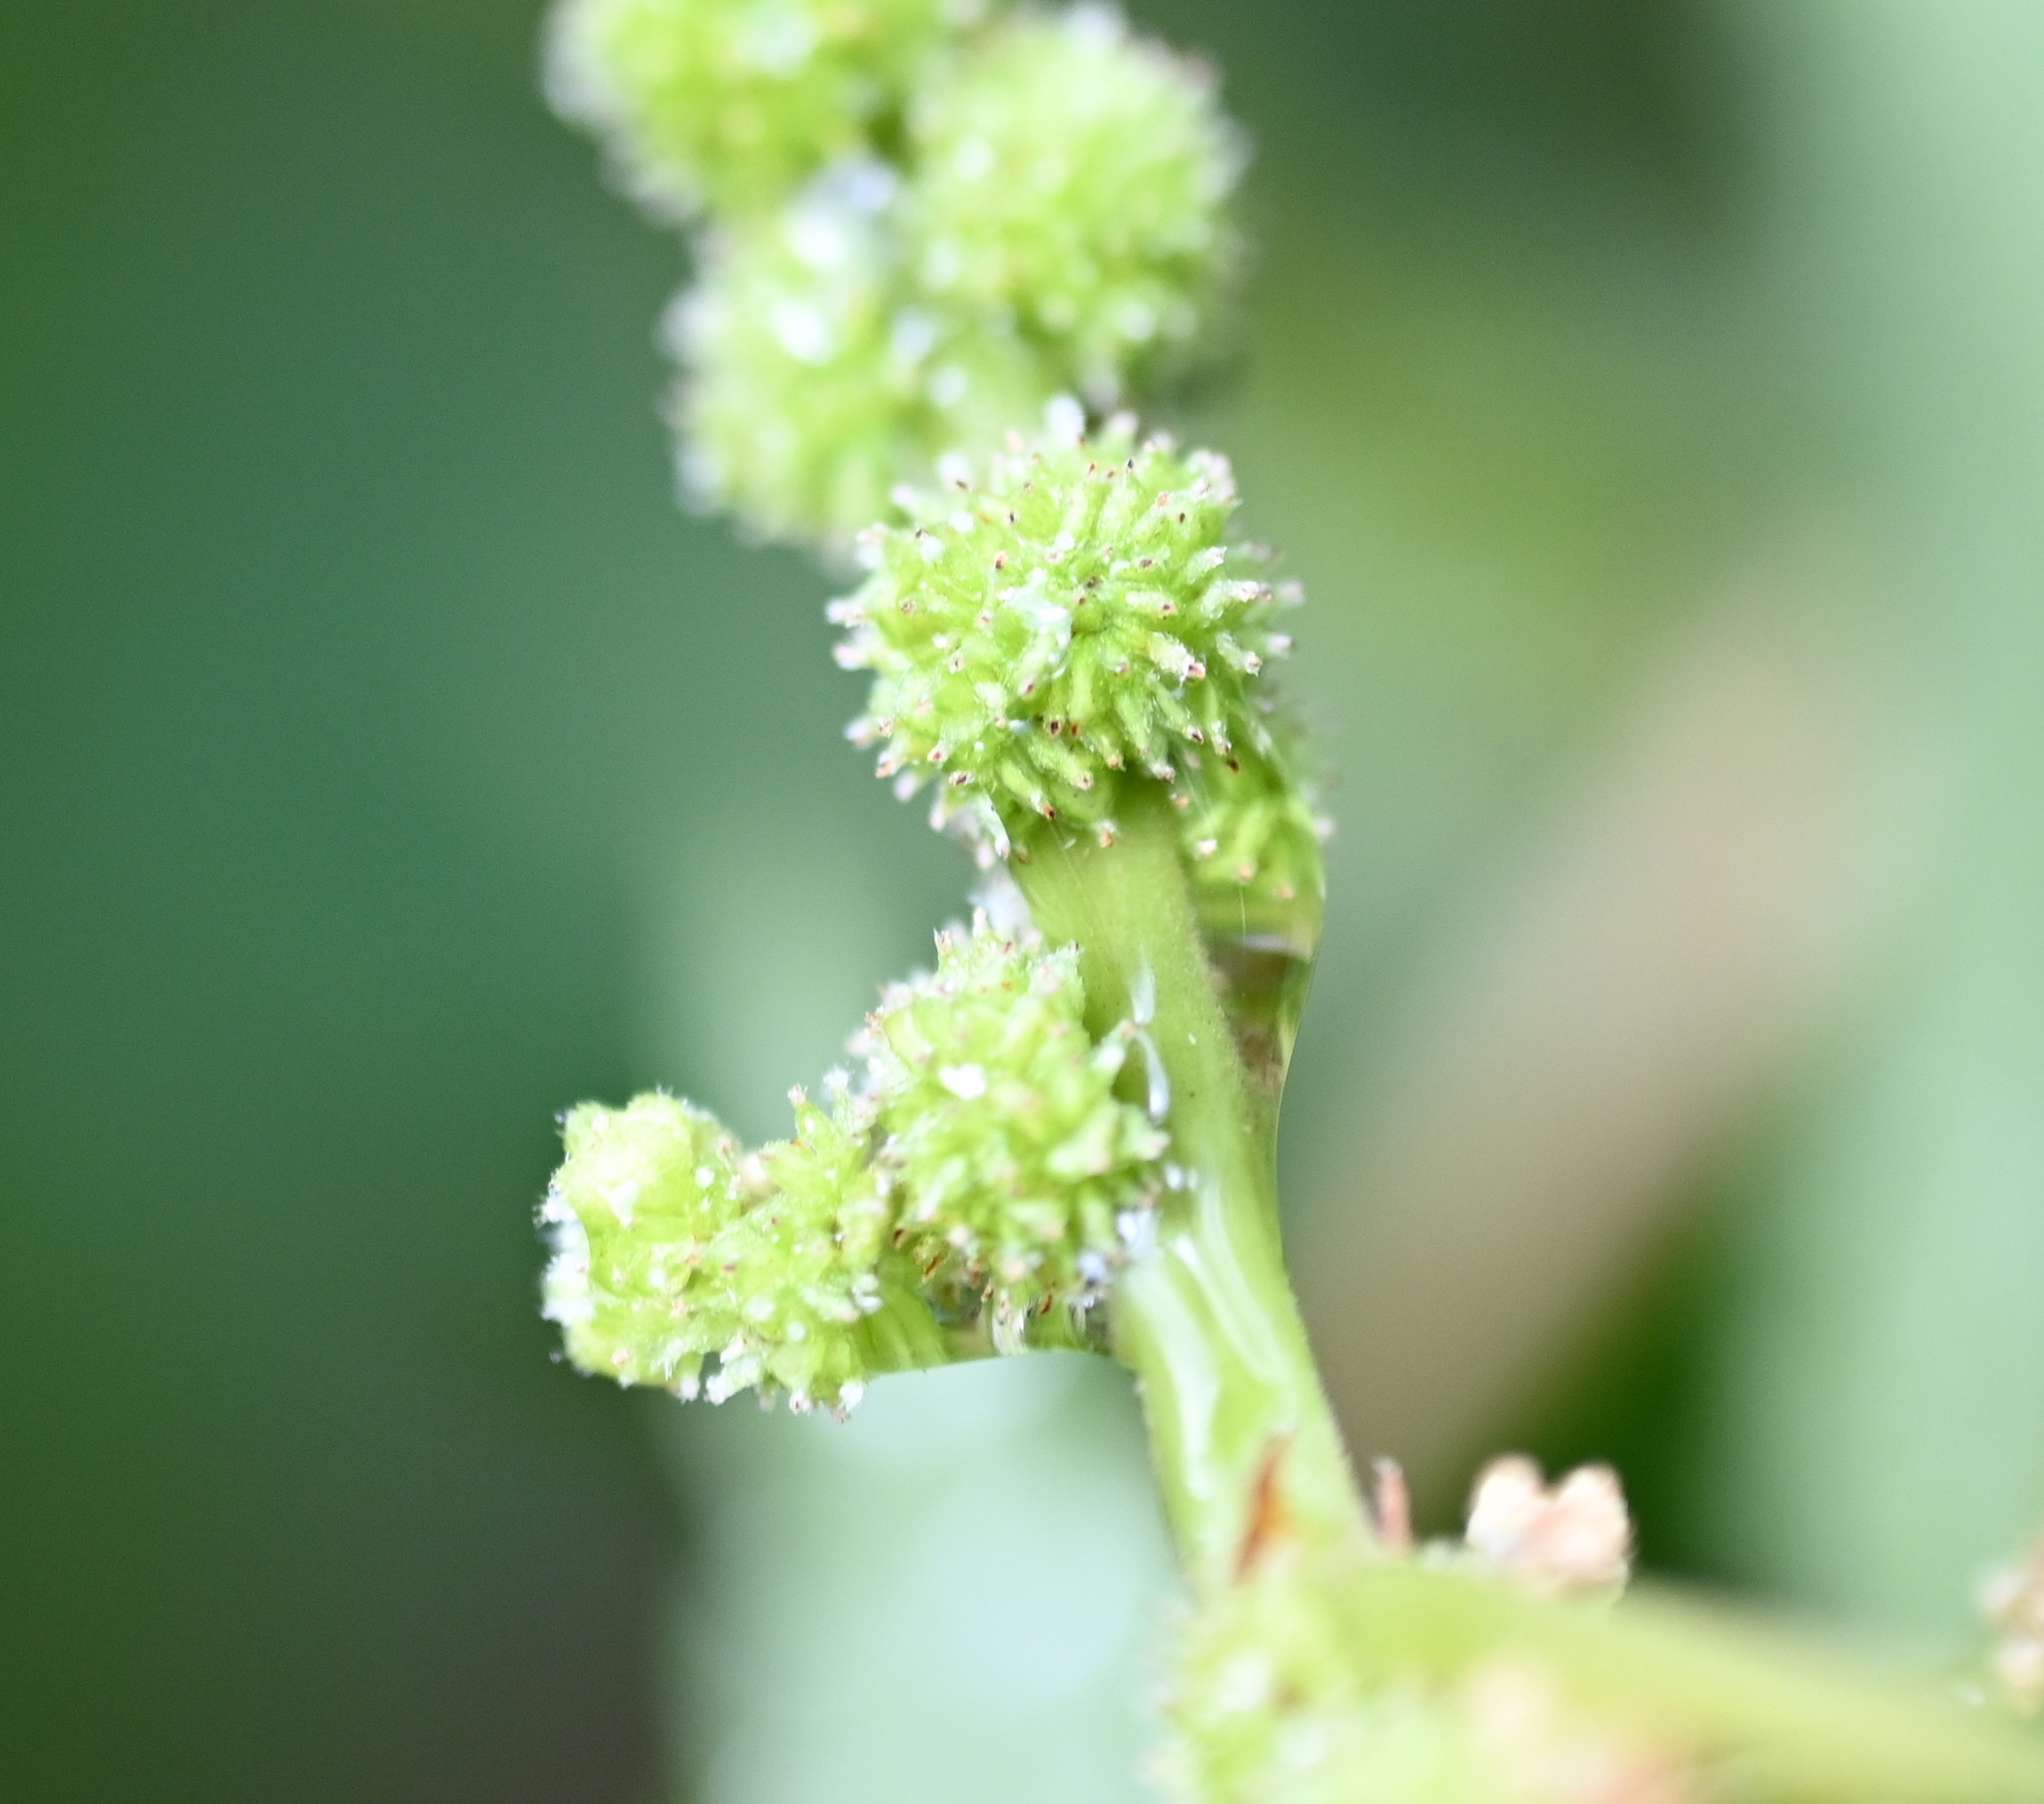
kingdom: Plantae
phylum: Tracheophyta
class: Magnoliopsida
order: Rosales
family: Urticaceae
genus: Boehmeria
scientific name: Boehmeria cylindrica
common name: Bog-hemp
